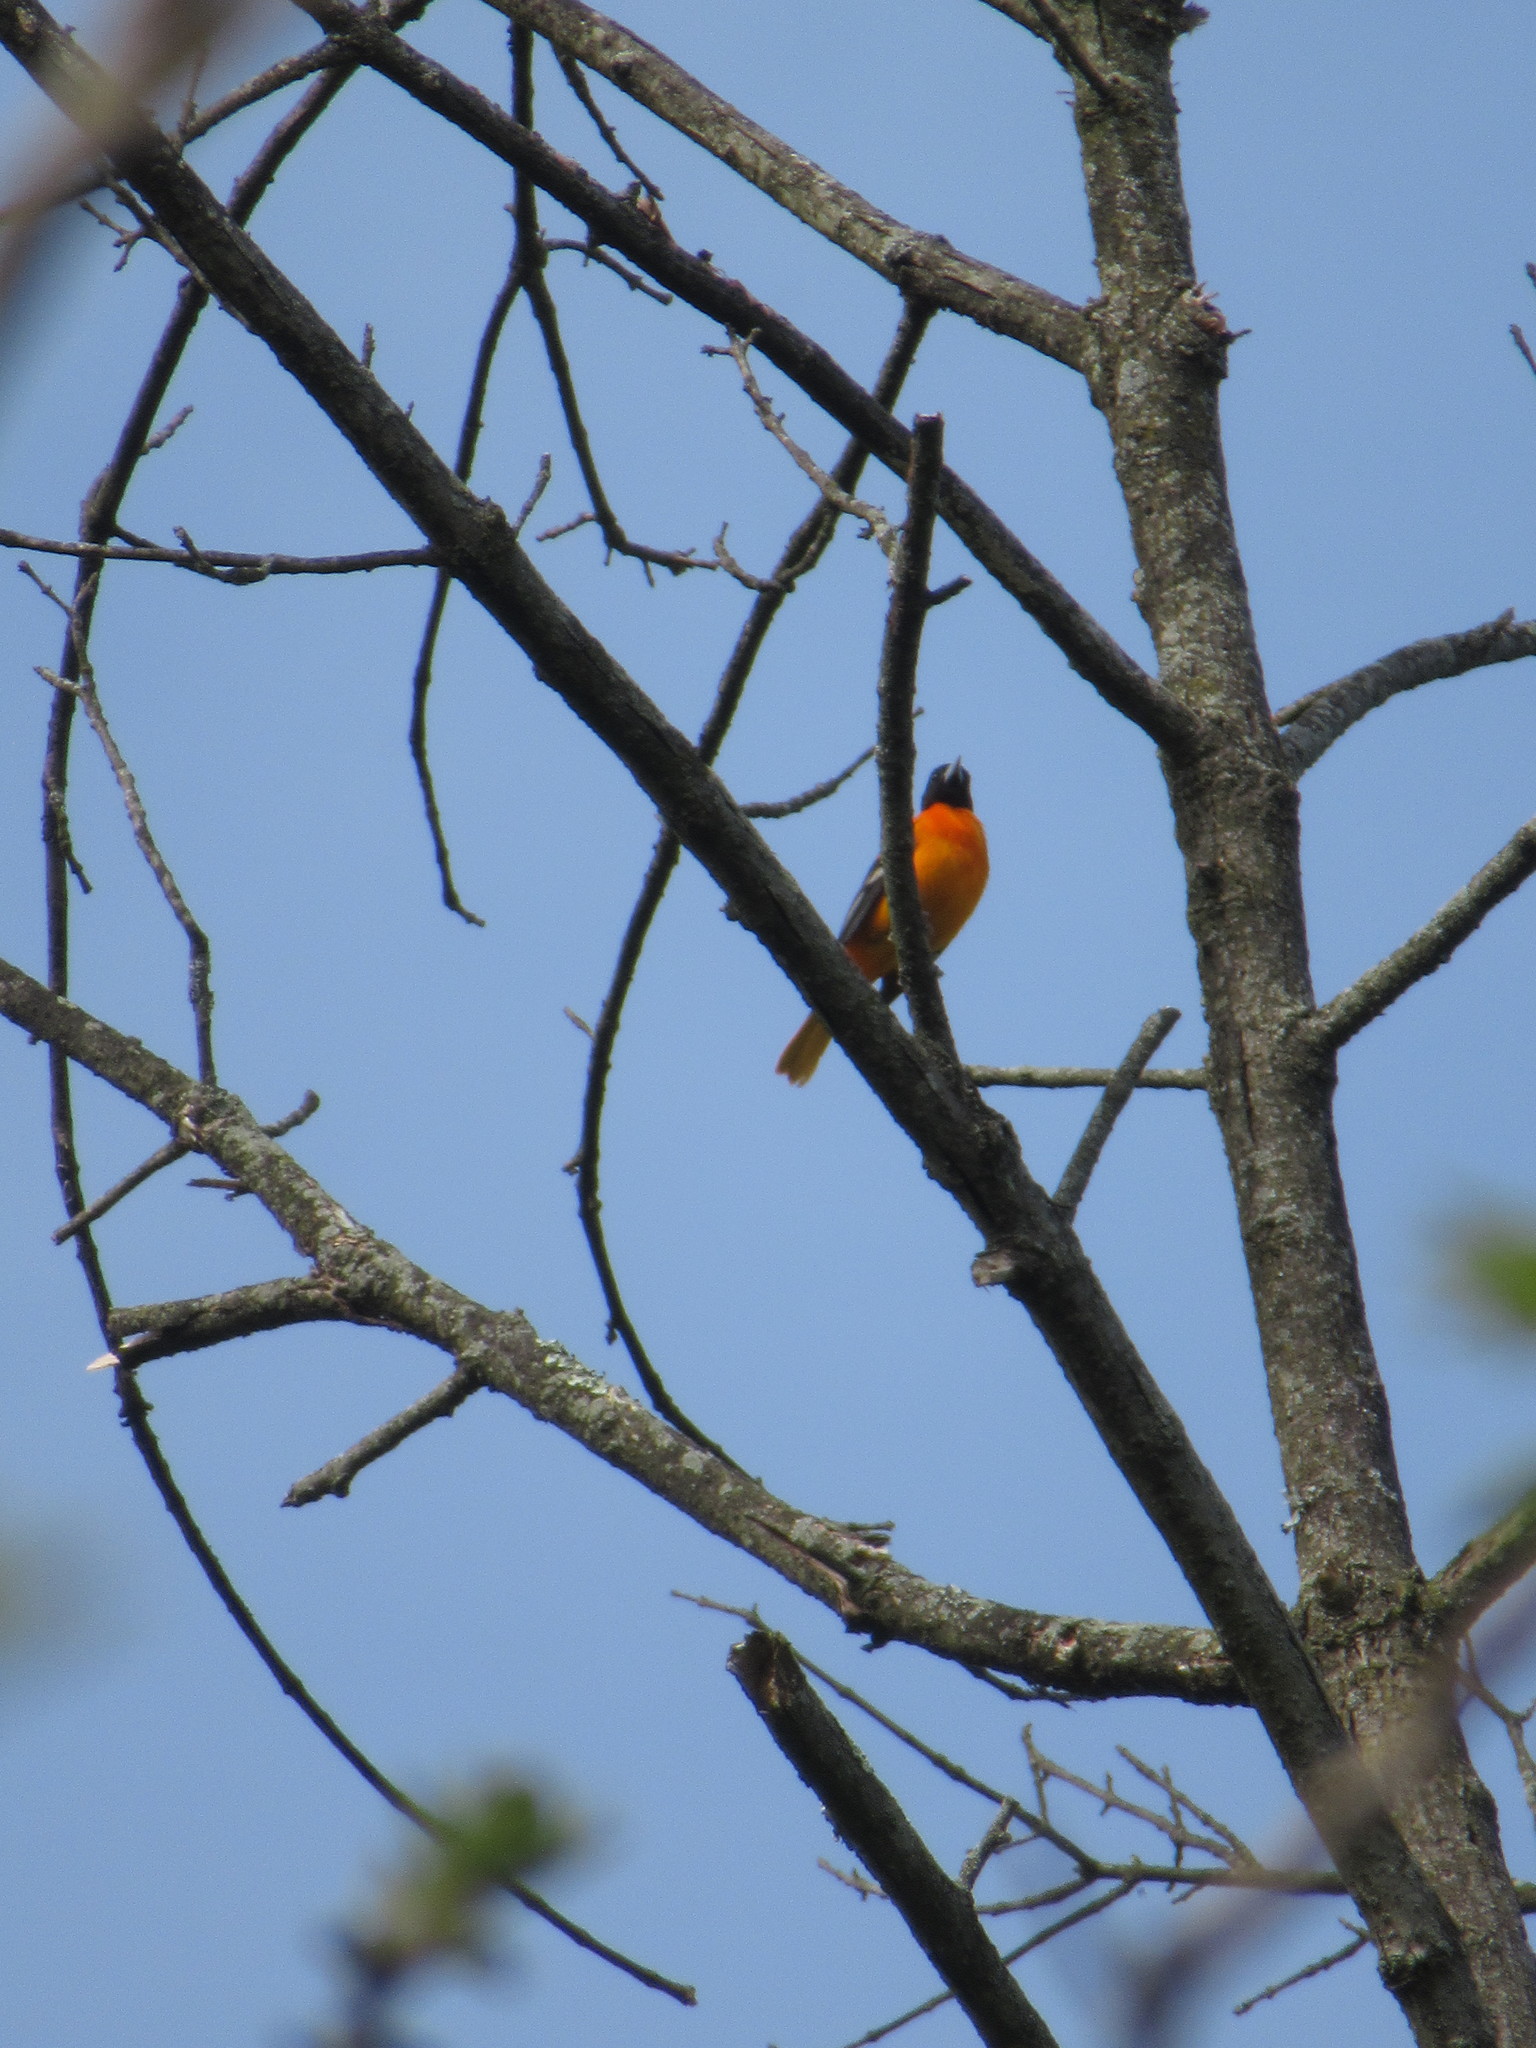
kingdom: Animalia
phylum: Chordata
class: Aves
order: Passeriformes
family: Icteridae
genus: Icterus
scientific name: Icterus galbula
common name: Baltimore oriole
